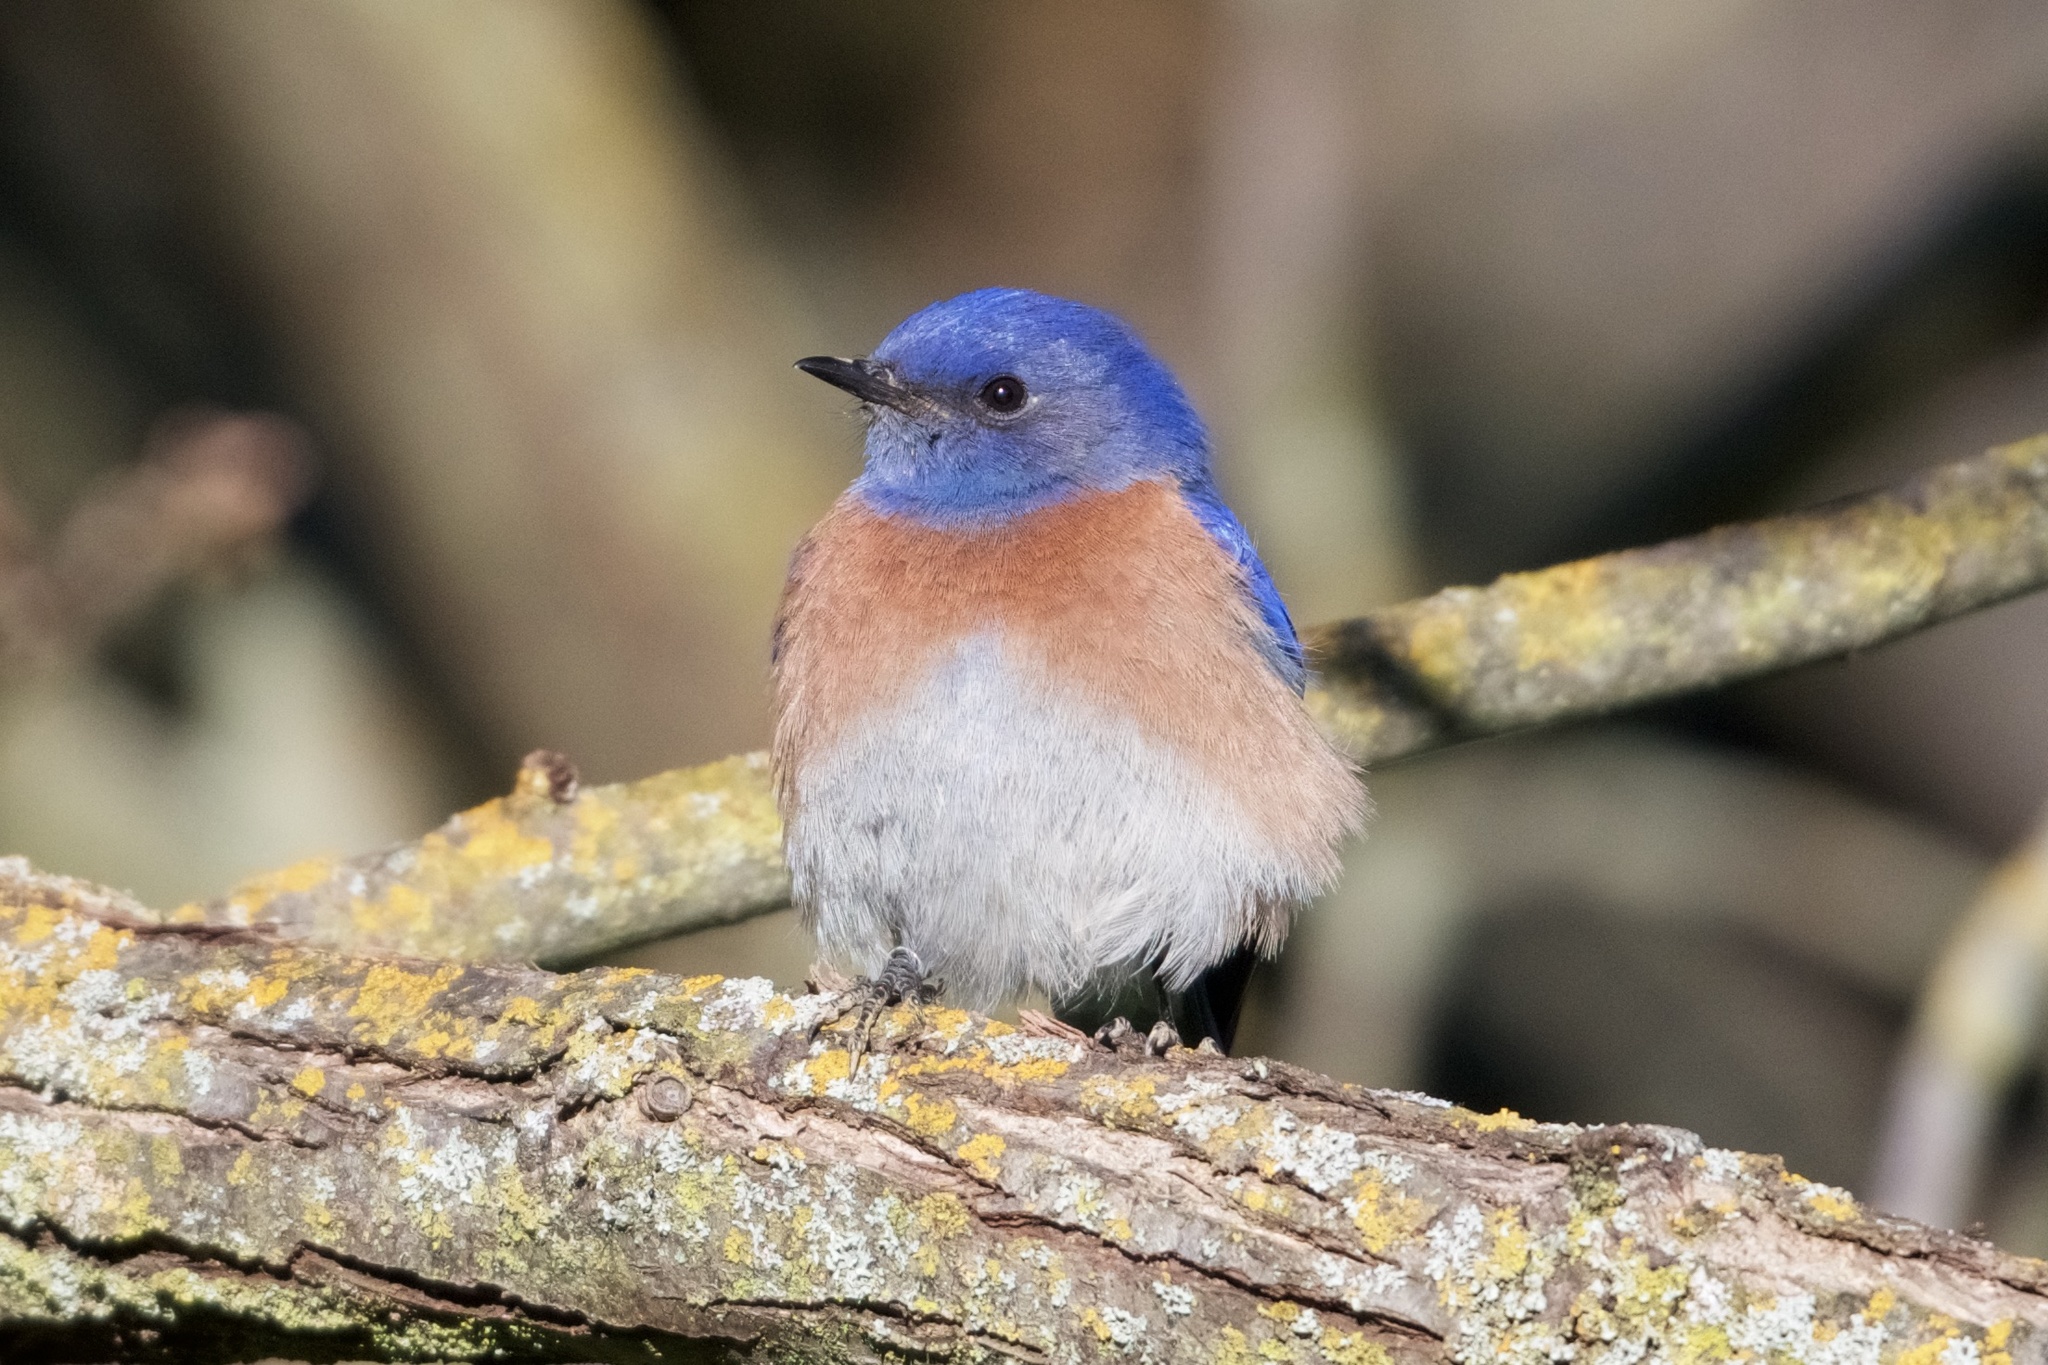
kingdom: Animalia
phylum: Chordata
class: Aves
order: Passeriformes
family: Turdidae
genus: Sialia
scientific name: Sialia mexicana
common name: Western bluebird
